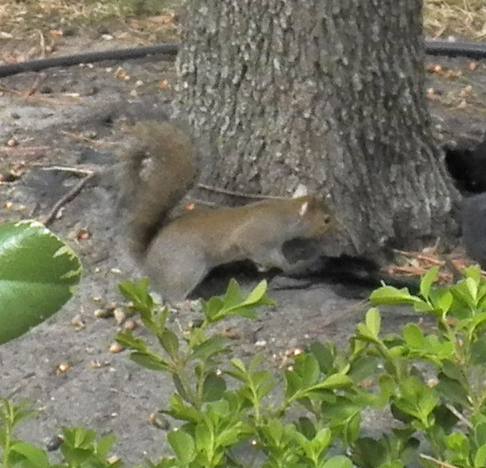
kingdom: Animalia
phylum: Chordata
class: Mammalia
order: Rodentia
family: Sciuridae
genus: Sciurus
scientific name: Sciurus carolinensis
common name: Eastern gray squirrel
